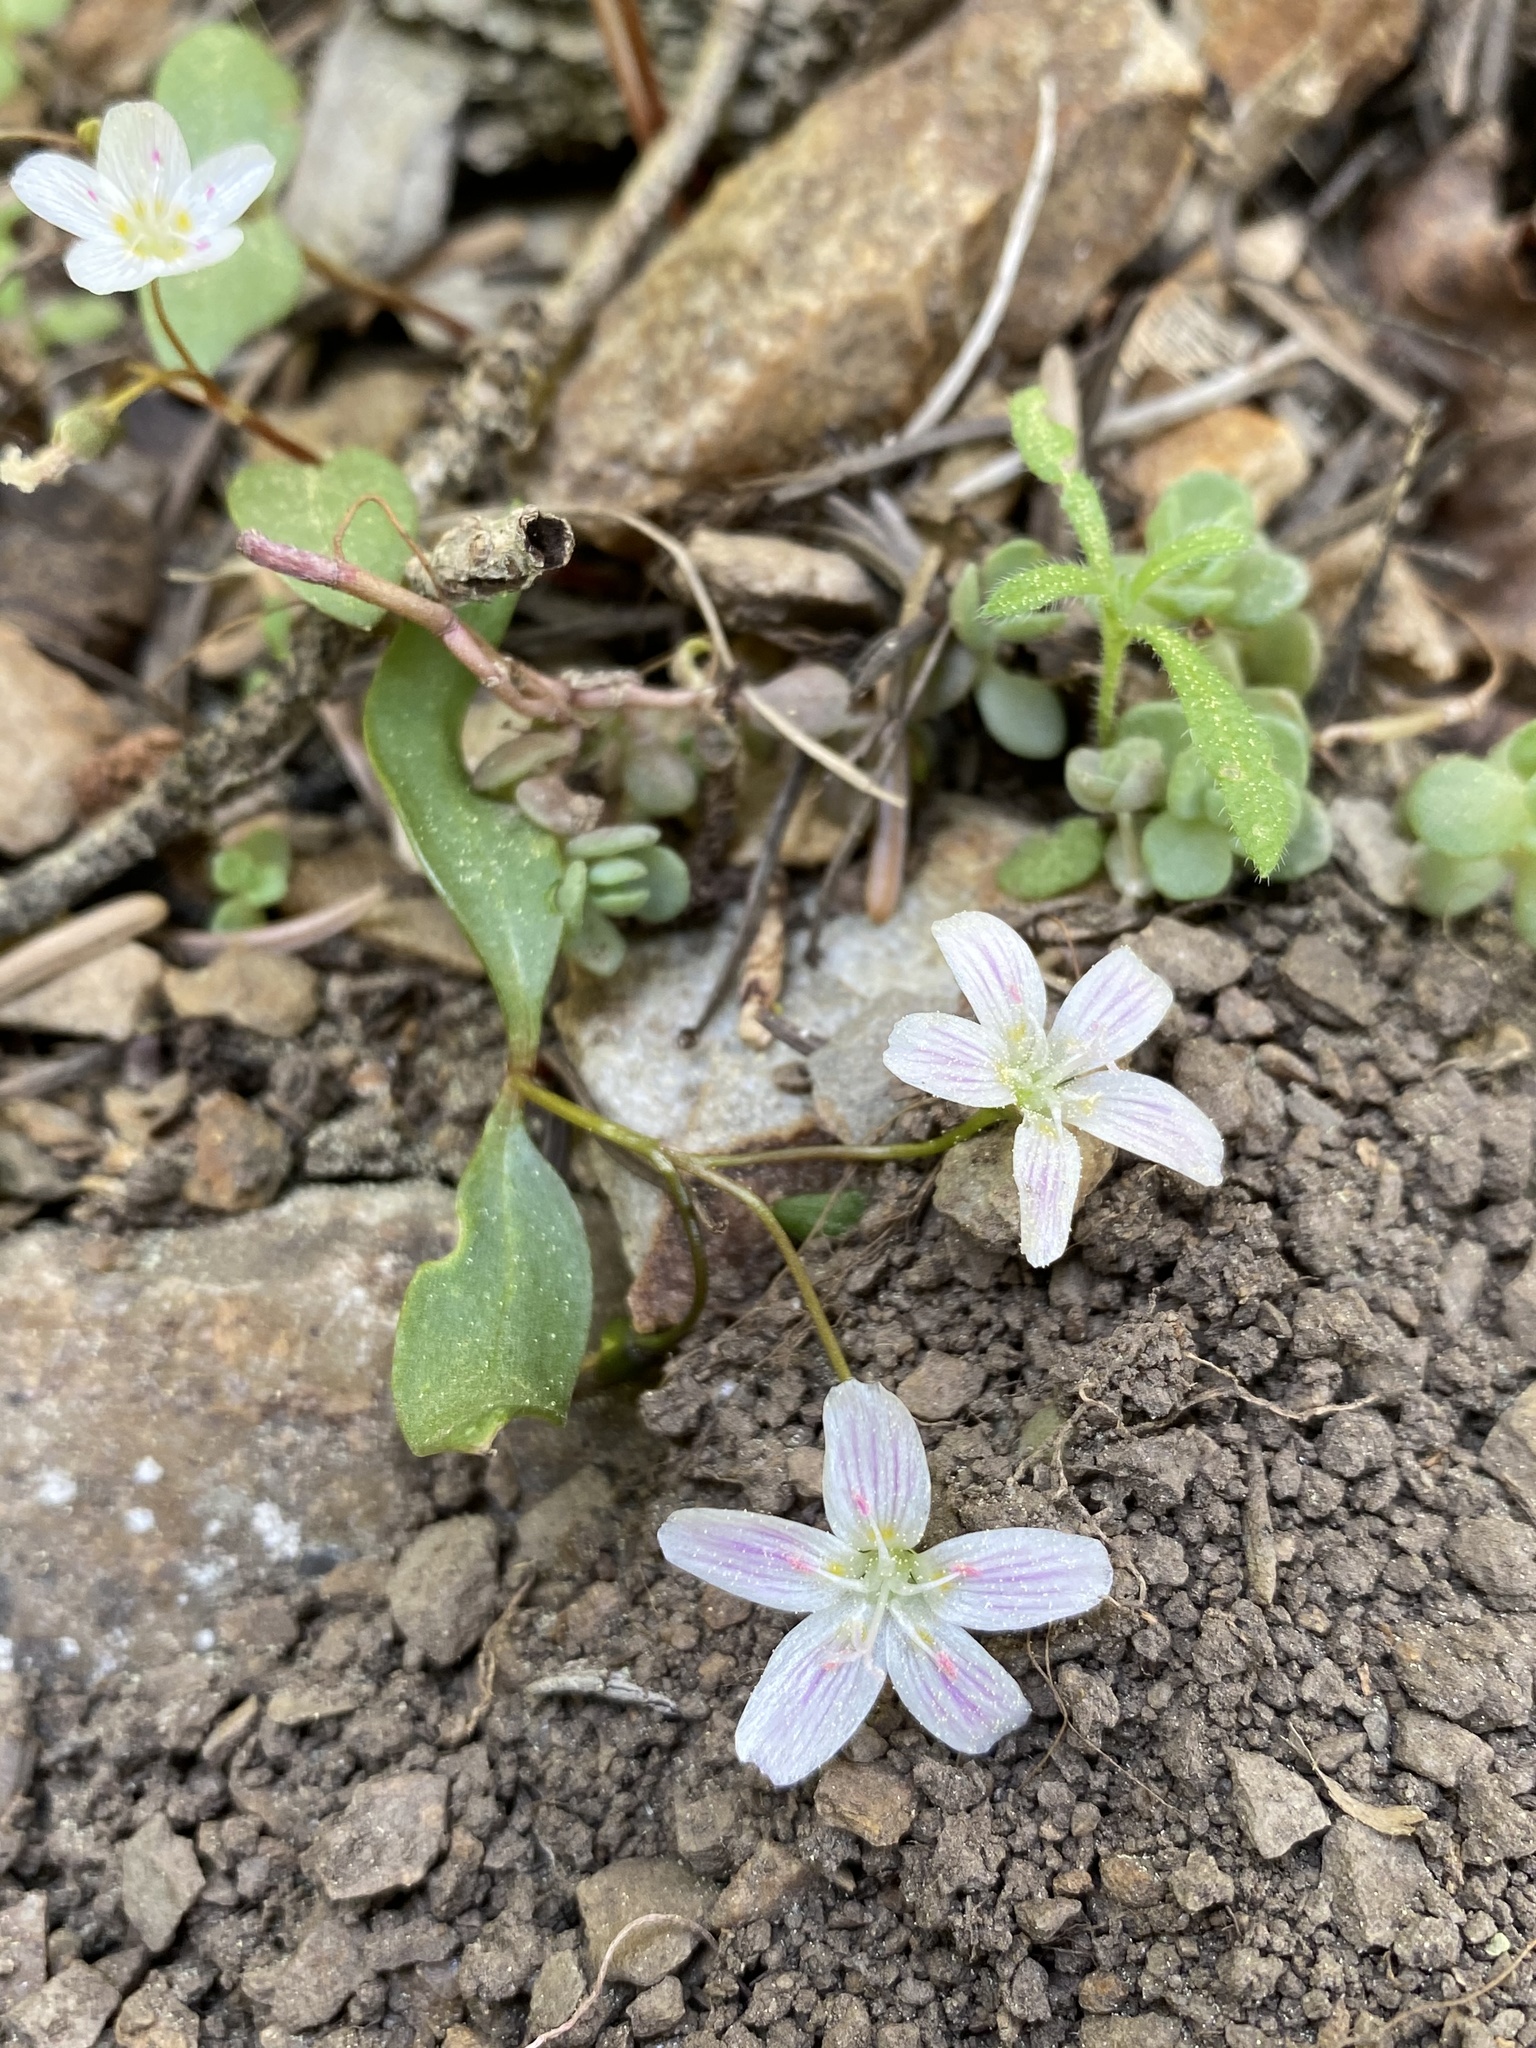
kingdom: Plantae
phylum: Tracheophyta
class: Magnoliopsida
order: Caryophyllales
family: Montiaceae
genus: Claytonia
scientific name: Claytonia lanceolata
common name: Western spring-beauty
